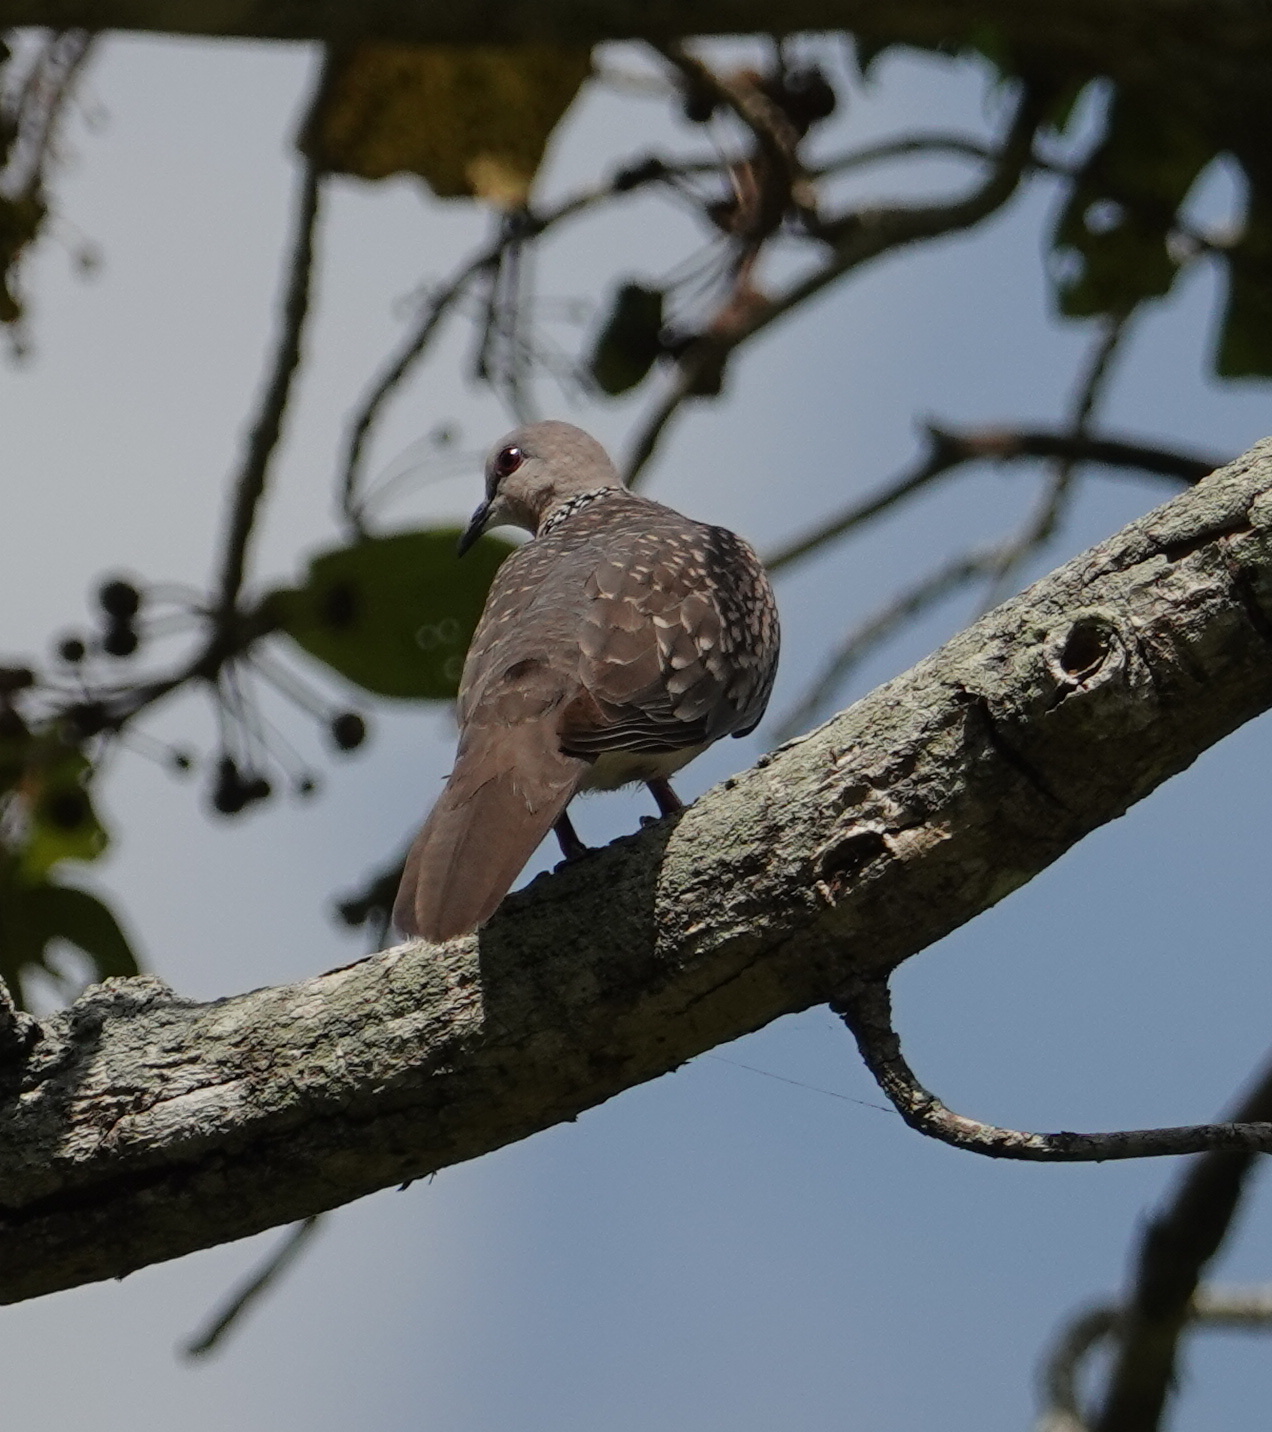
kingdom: Animalia
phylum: Chordata
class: Aves
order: Columbiformes
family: Columbidae
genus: Spilopelia
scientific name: Spilopelia chinensis
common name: Spotted dove
